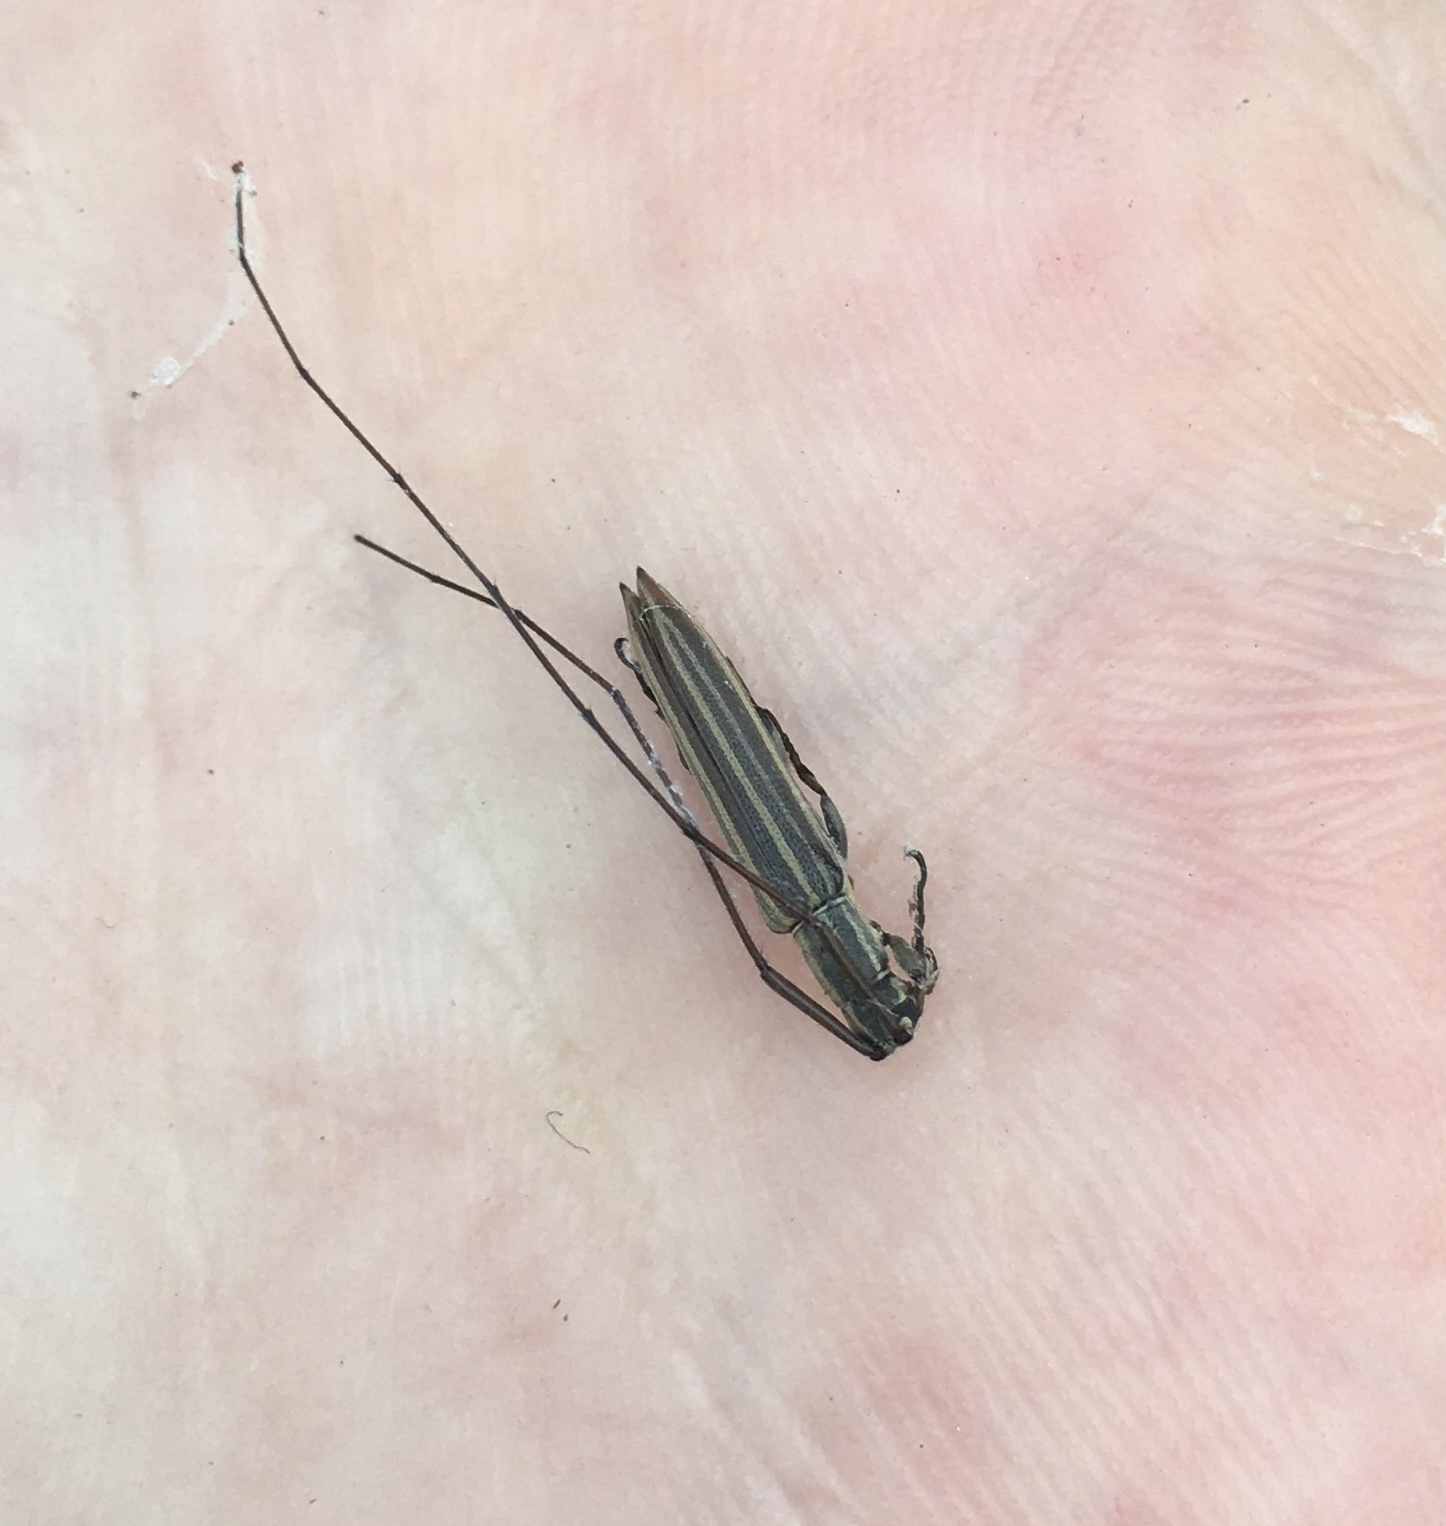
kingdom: Animalia
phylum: Arthropoda
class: Insecta
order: Coleoptera
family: Cerambycidae
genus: Hippopsis
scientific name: Hippopsis
